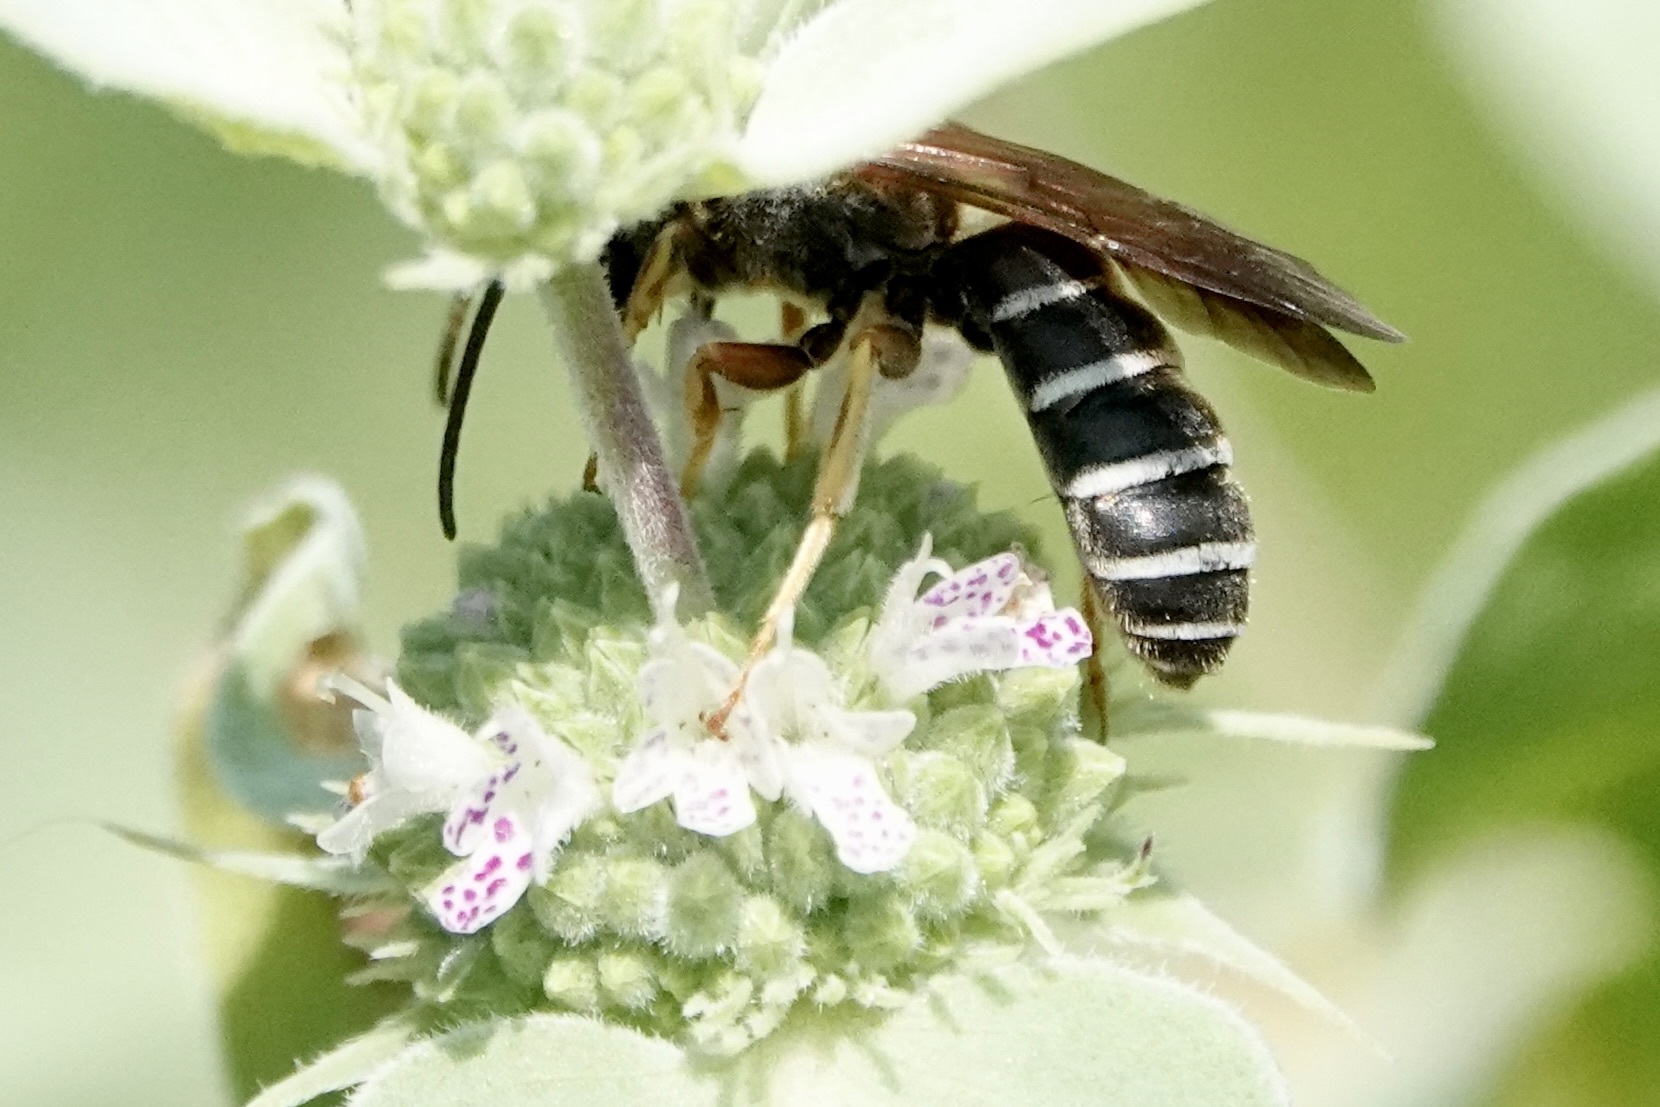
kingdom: Animalia
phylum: Arthropoda
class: Insecta
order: Hymenoptera
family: Halictidae
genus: Halictus
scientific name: Halictus parallelus
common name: Parallel-striped sweat bee
